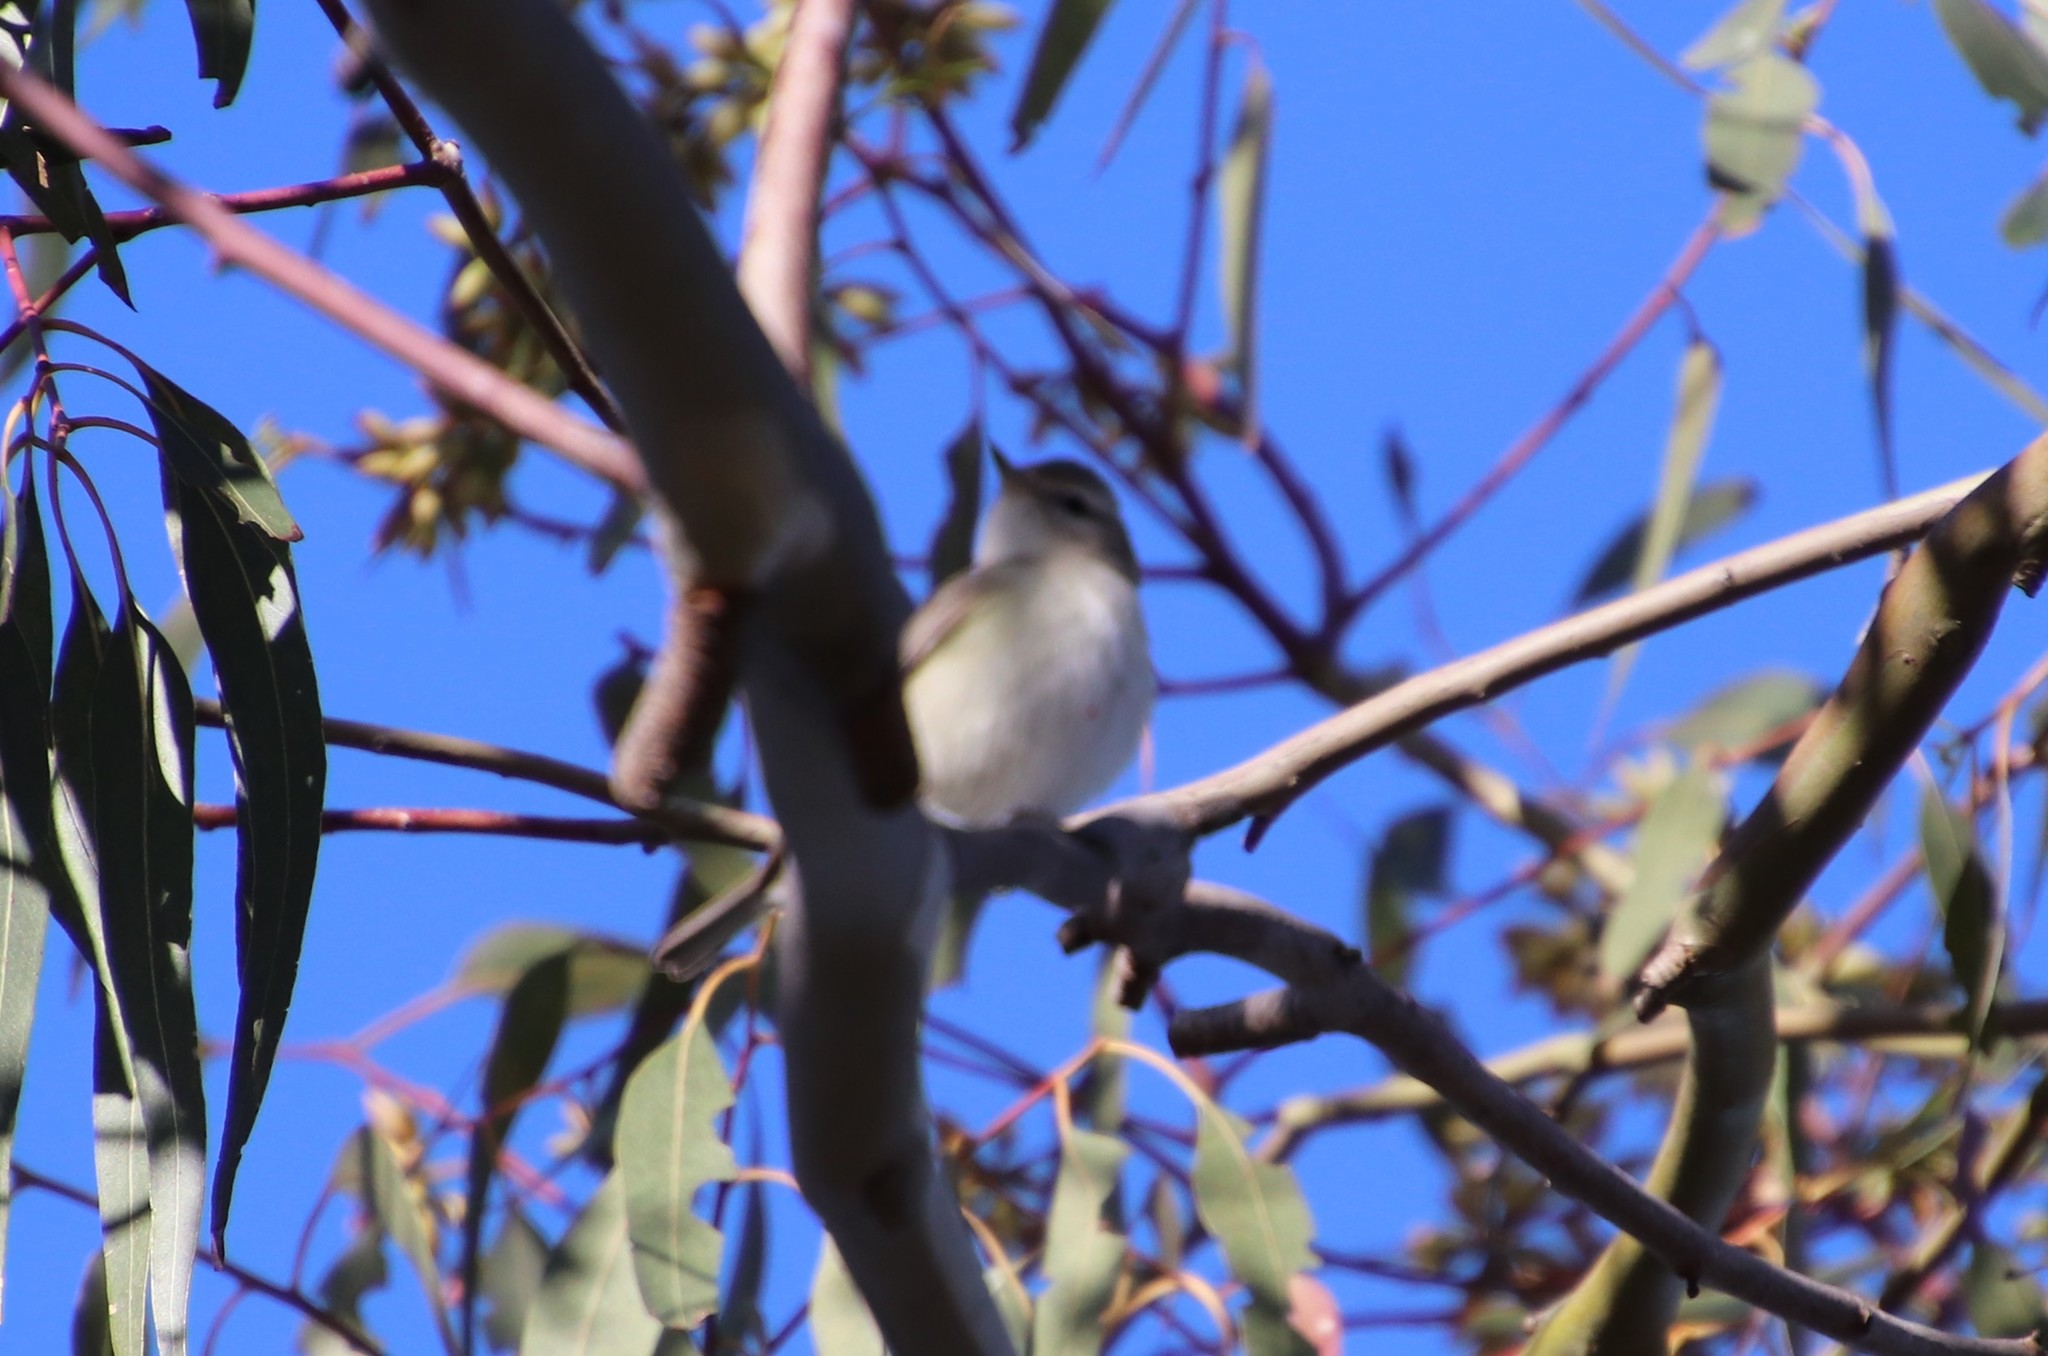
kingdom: Animalia
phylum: Chordata
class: Aves
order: Passeriformes
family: Vireonidae
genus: Vireo
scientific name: Vireo gilvus
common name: Warbling vireo
